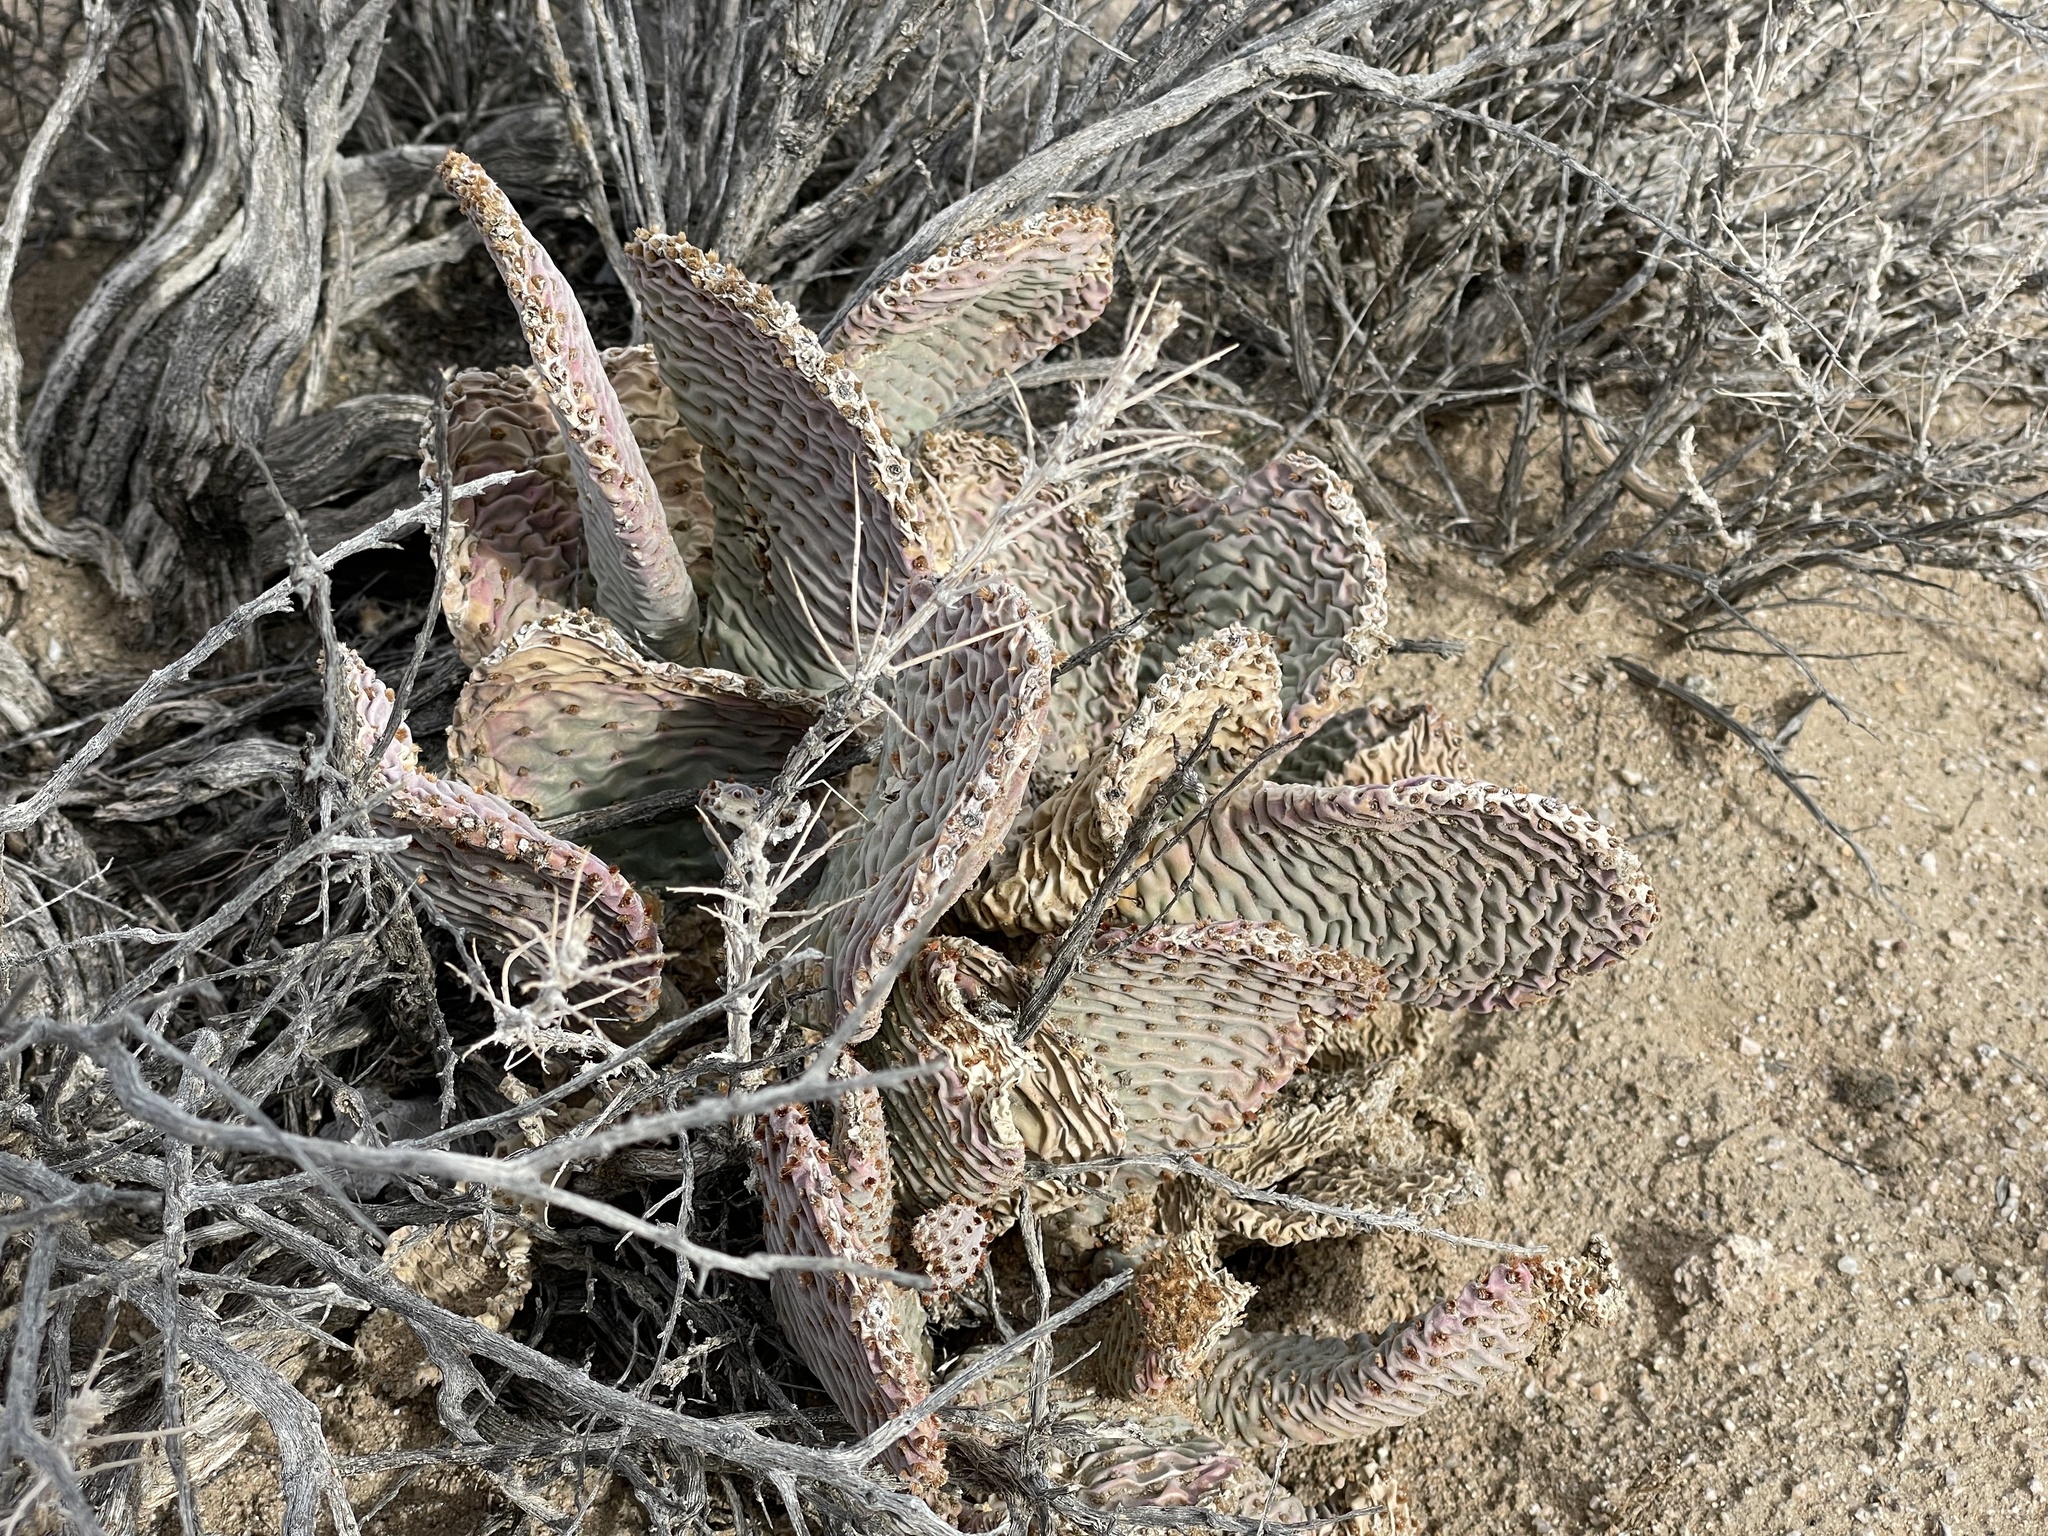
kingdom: Plantae
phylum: Tracheophyta
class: Magnoliopsida
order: Caryophyllales
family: Cactaceae
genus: Opuntia
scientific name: Opuntia basilaris
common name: Beavertail prickly-pear
